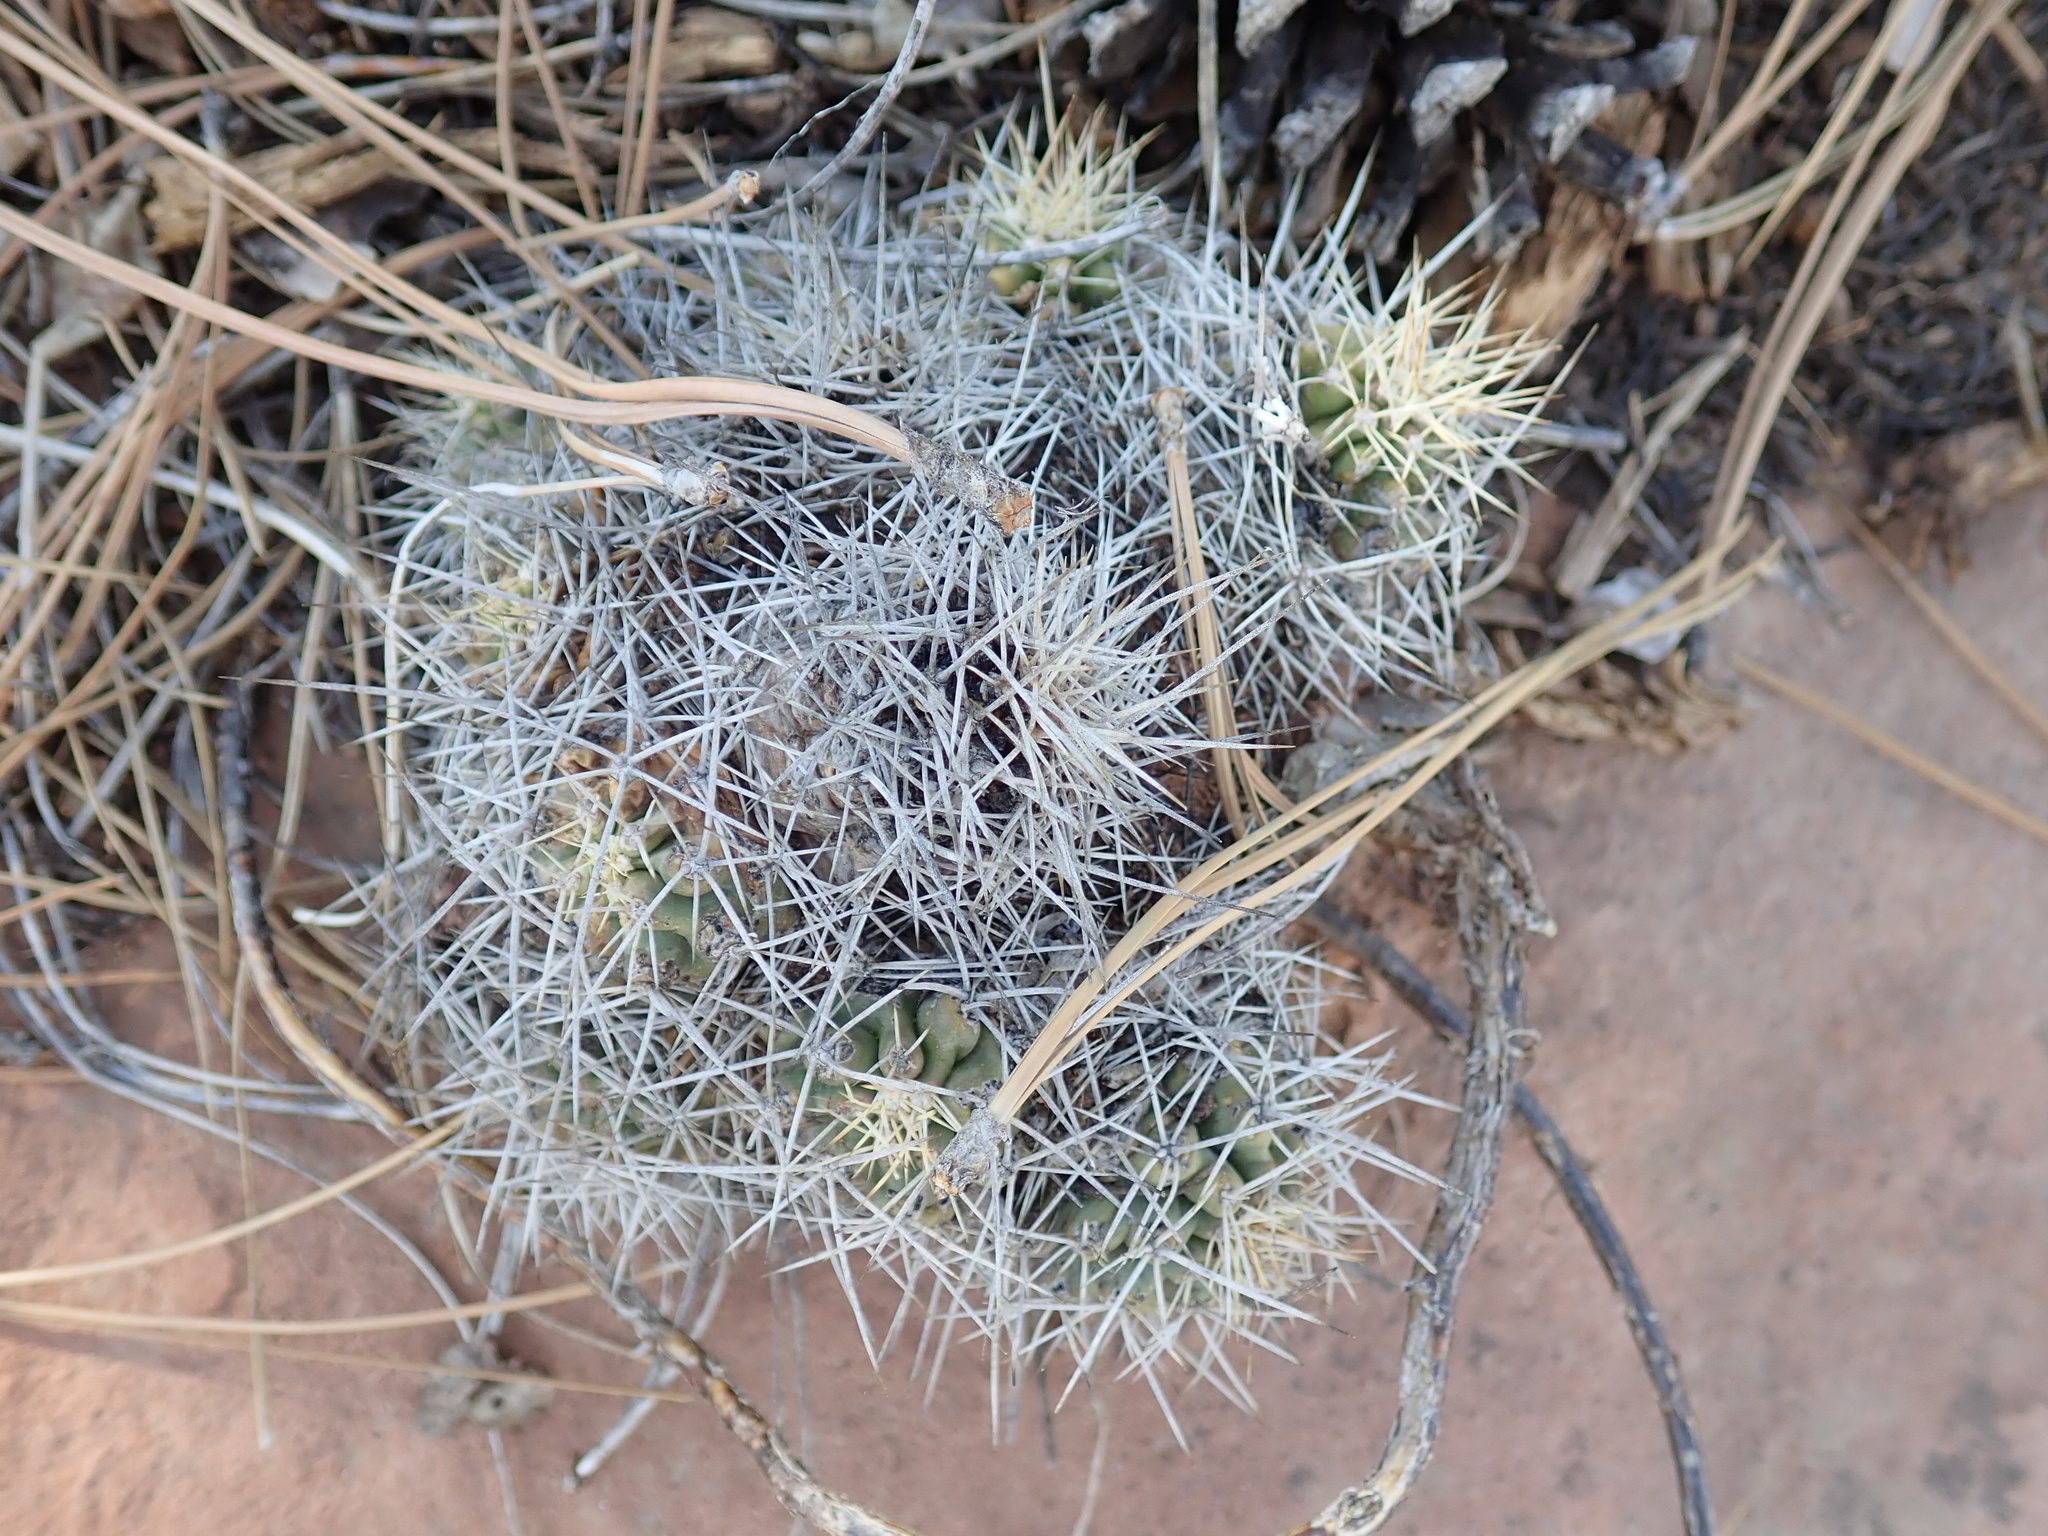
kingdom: Plantae
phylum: Tracheophyta
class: Magnoliopsida
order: Caryophyllales
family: Cactaceae
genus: Echinocereus
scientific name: Echinocereus triglochidiatus
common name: Claretcup hedgehog
